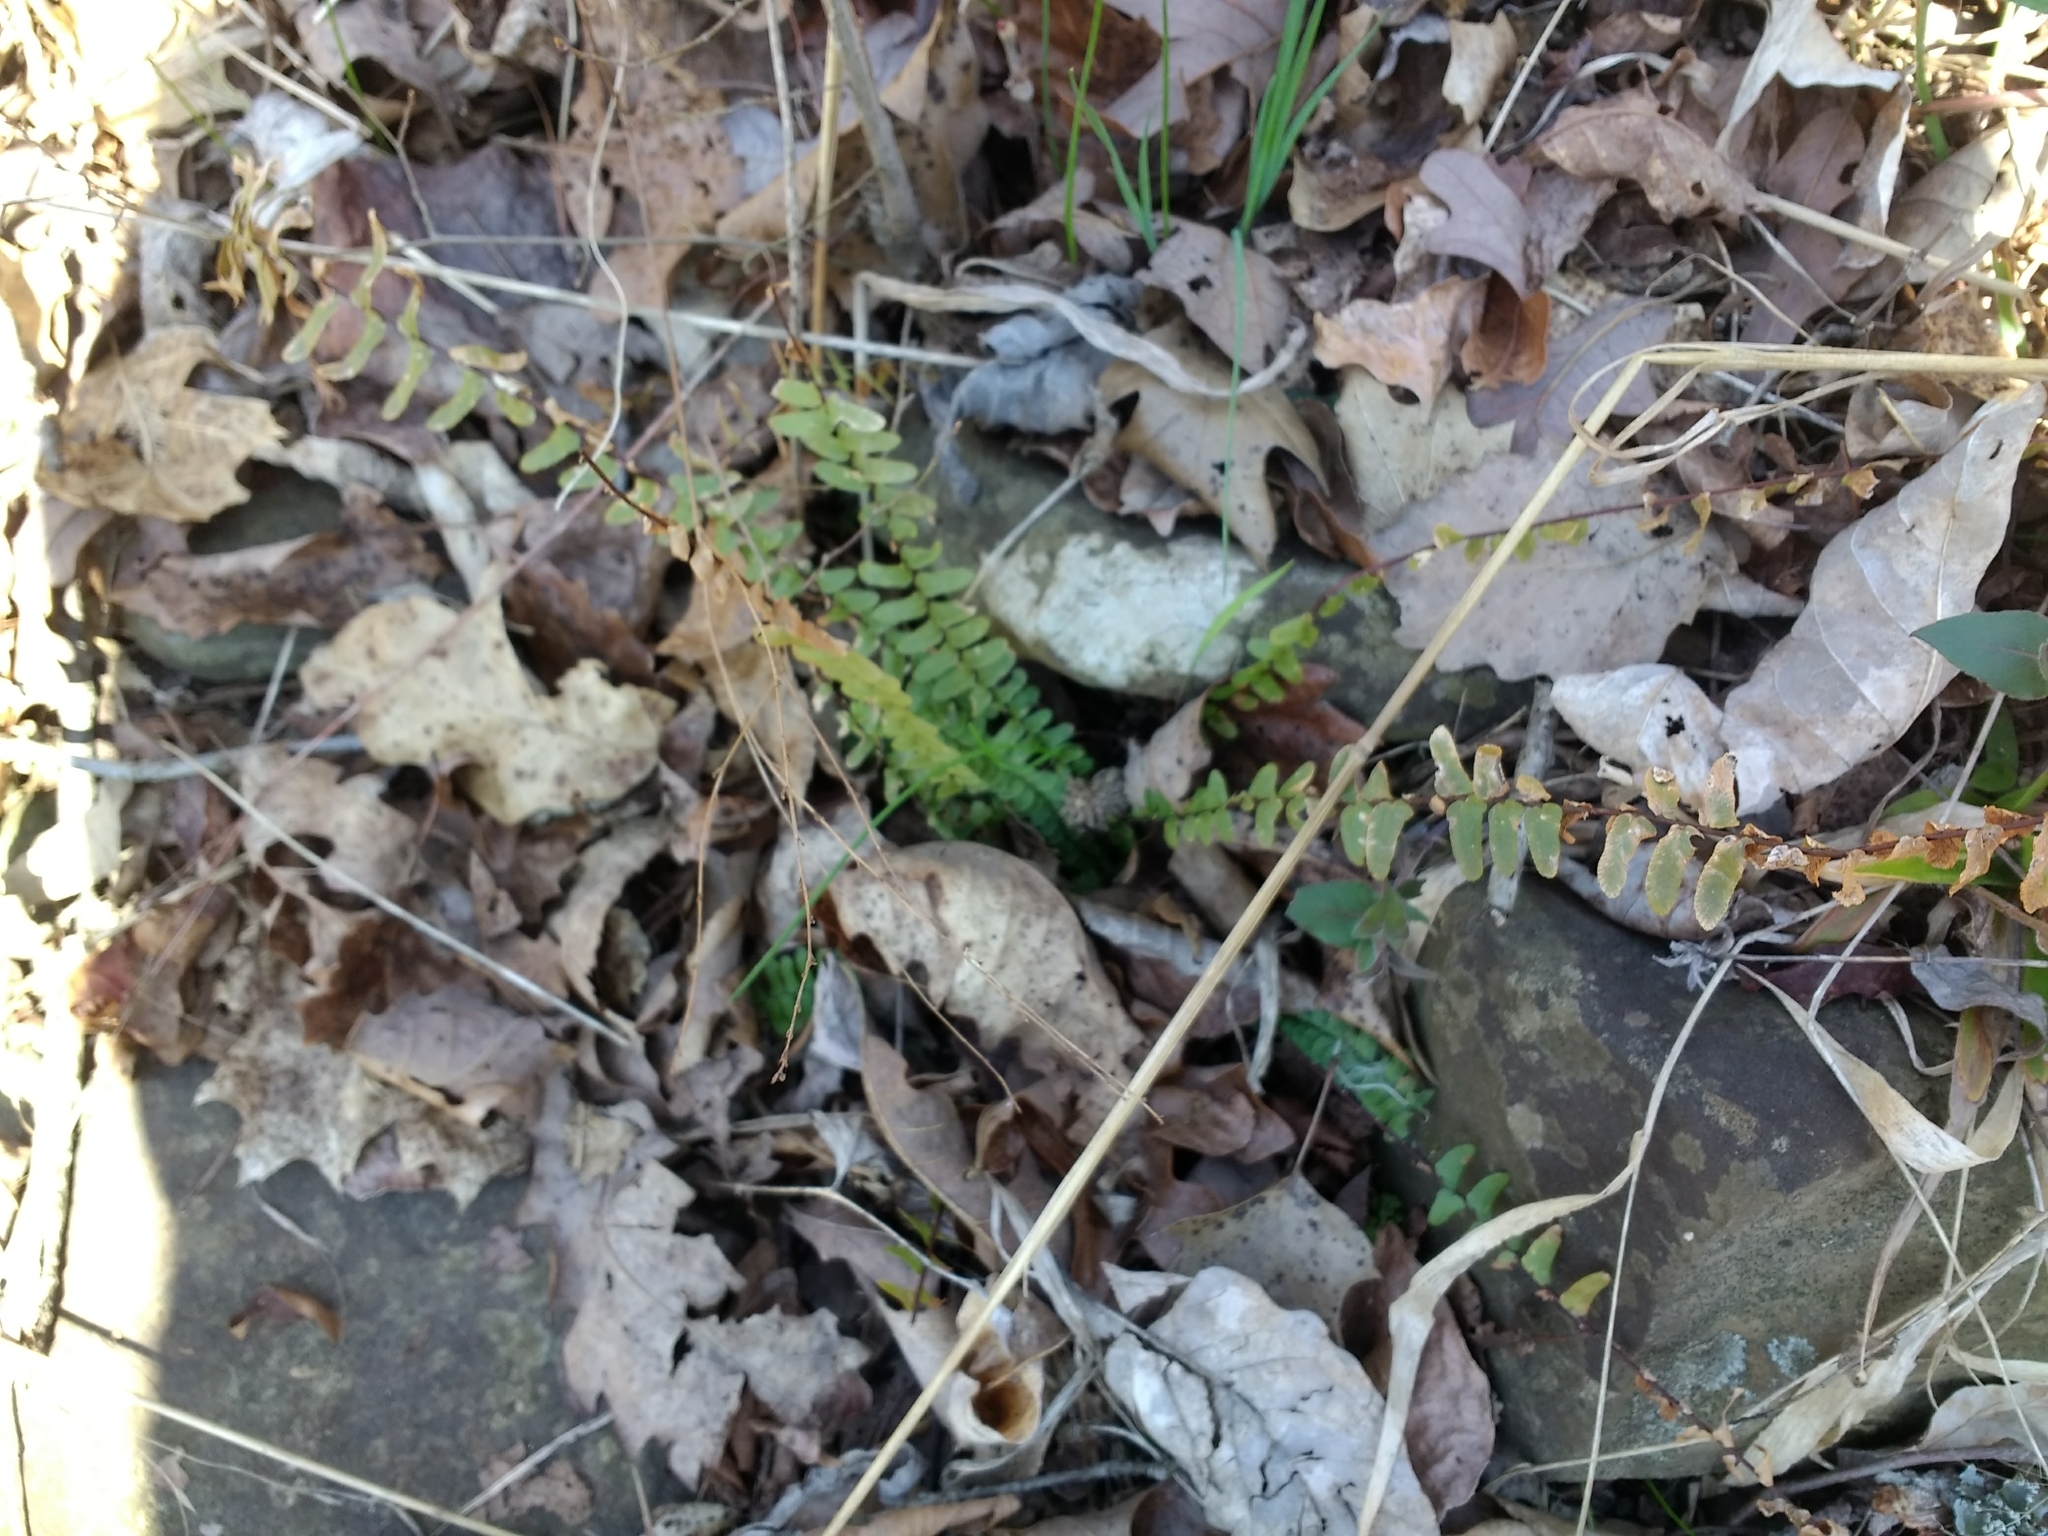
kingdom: Plantae
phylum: Tracheophyta
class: Polypodiopsida
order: Polypodiales
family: Aspleniaceae
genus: Asplenium
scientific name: Asplenium platyneuron
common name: Ebony spleenwort
